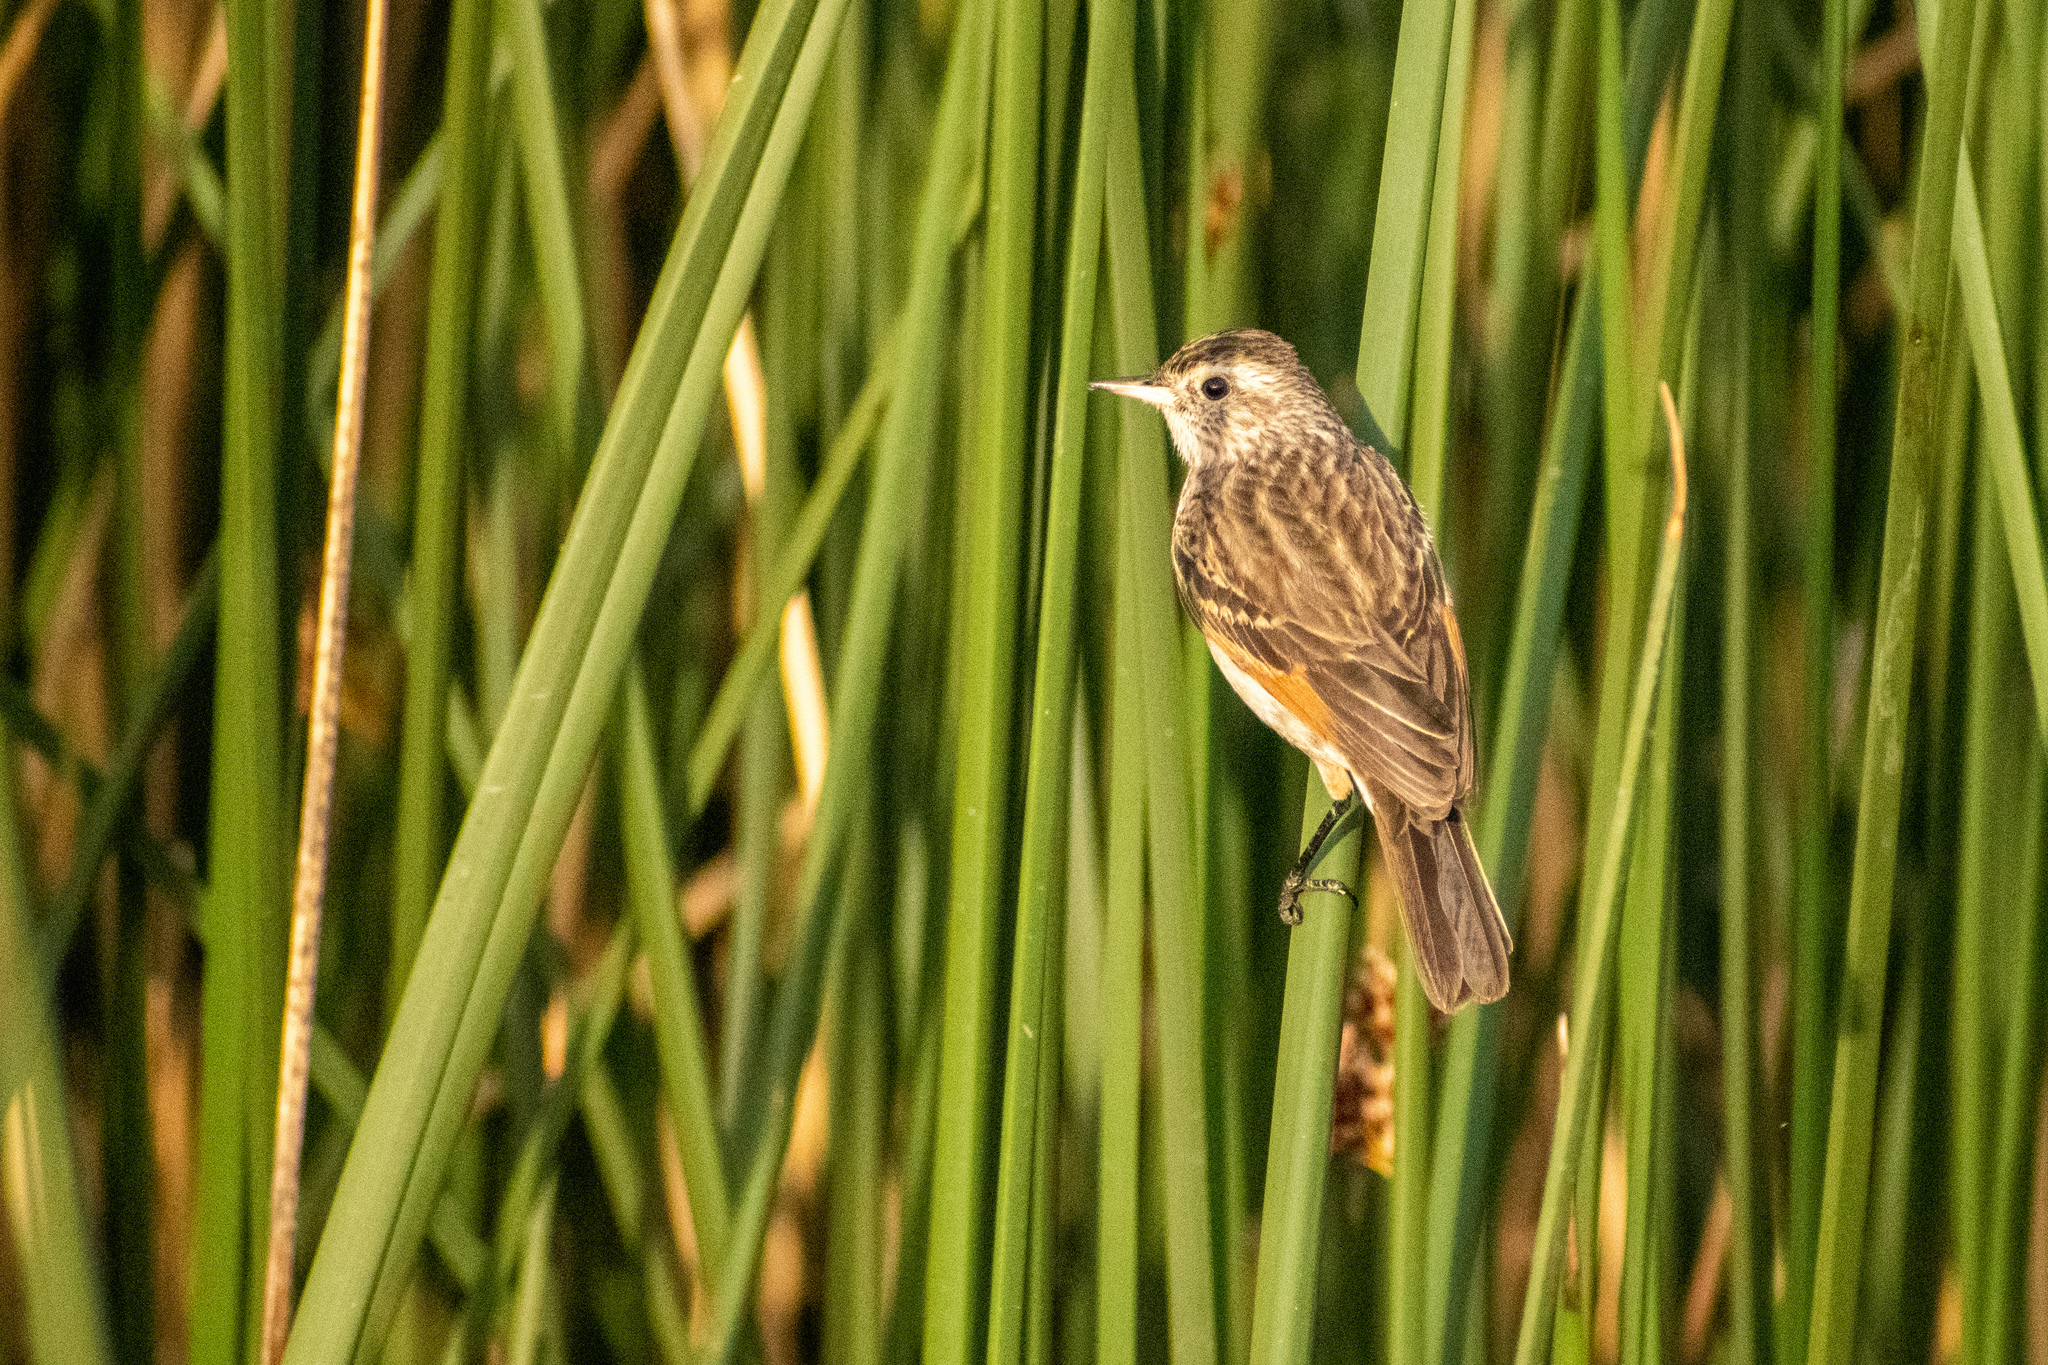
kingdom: Animalia
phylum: Chordata
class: Aves
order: Passeriformes
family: Tyrannidae
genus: Hymenops
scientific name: Hymenops perspicillatus
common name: Spectacled tyrant
